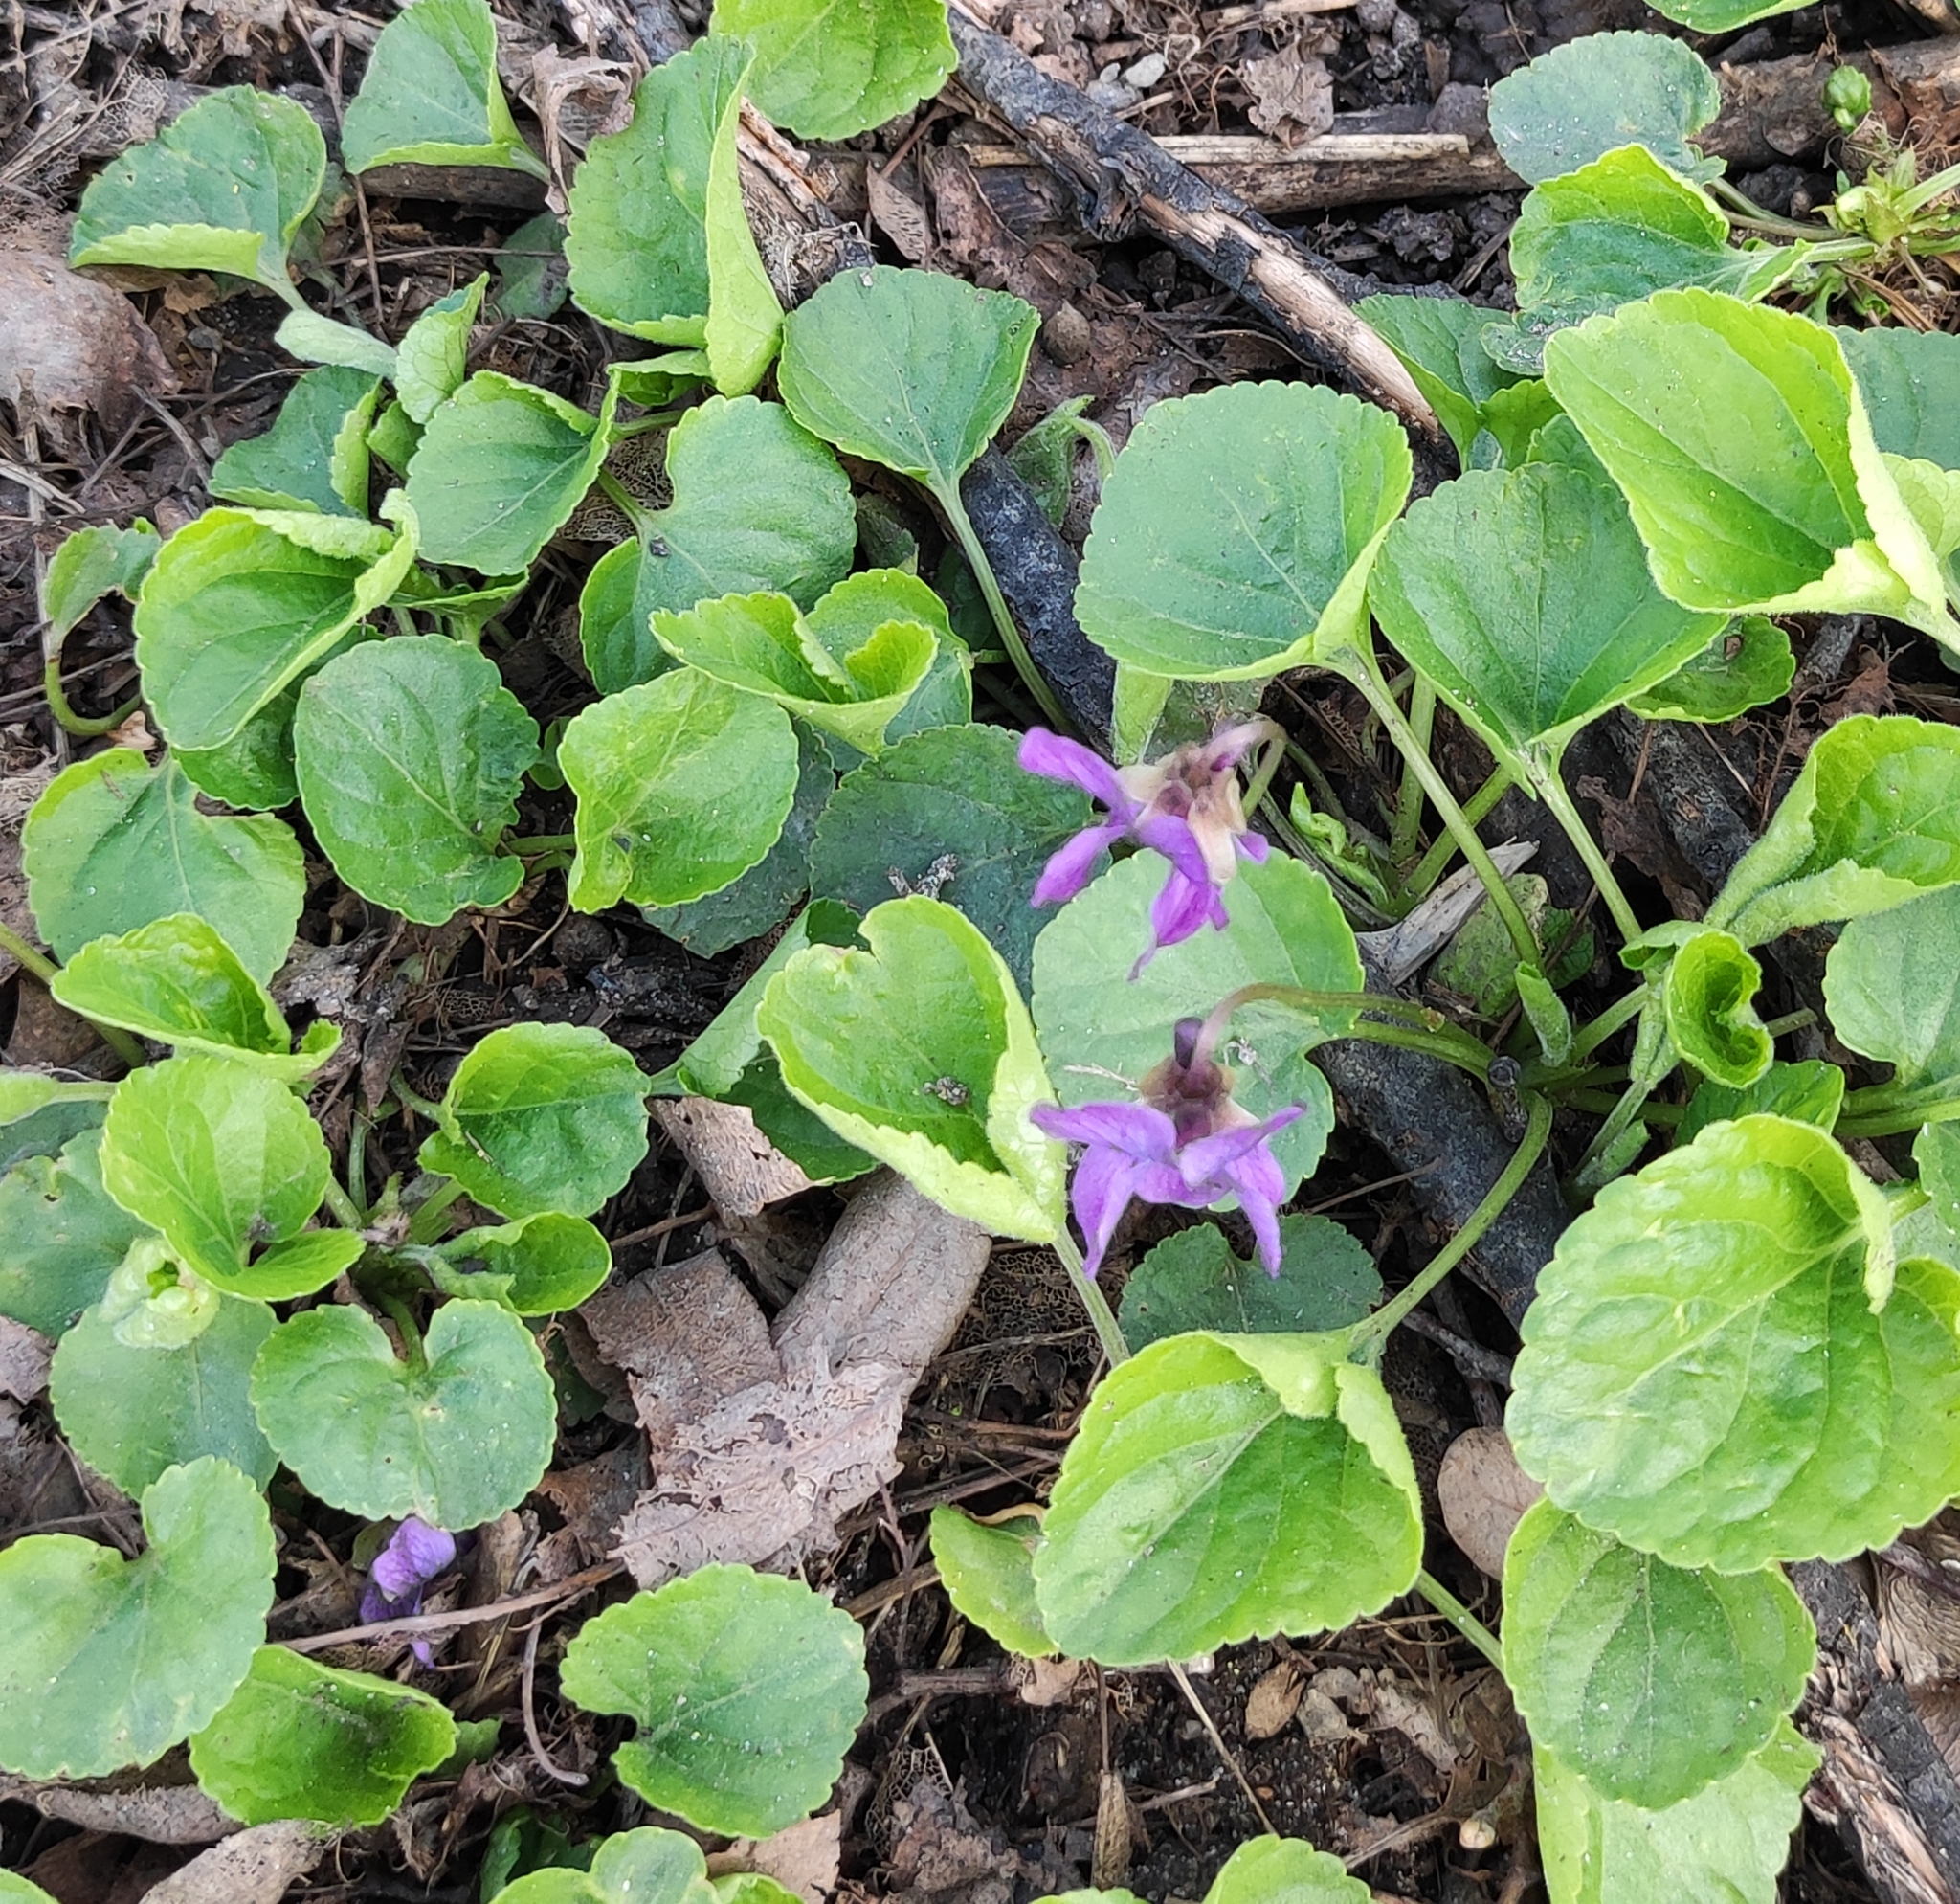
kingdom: Plantae
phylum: Tracheophyta
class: Magnoliopsida
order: Malpighiales
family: Violaceae
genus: Viola
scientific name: Viola odorata
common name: Sweet violet
